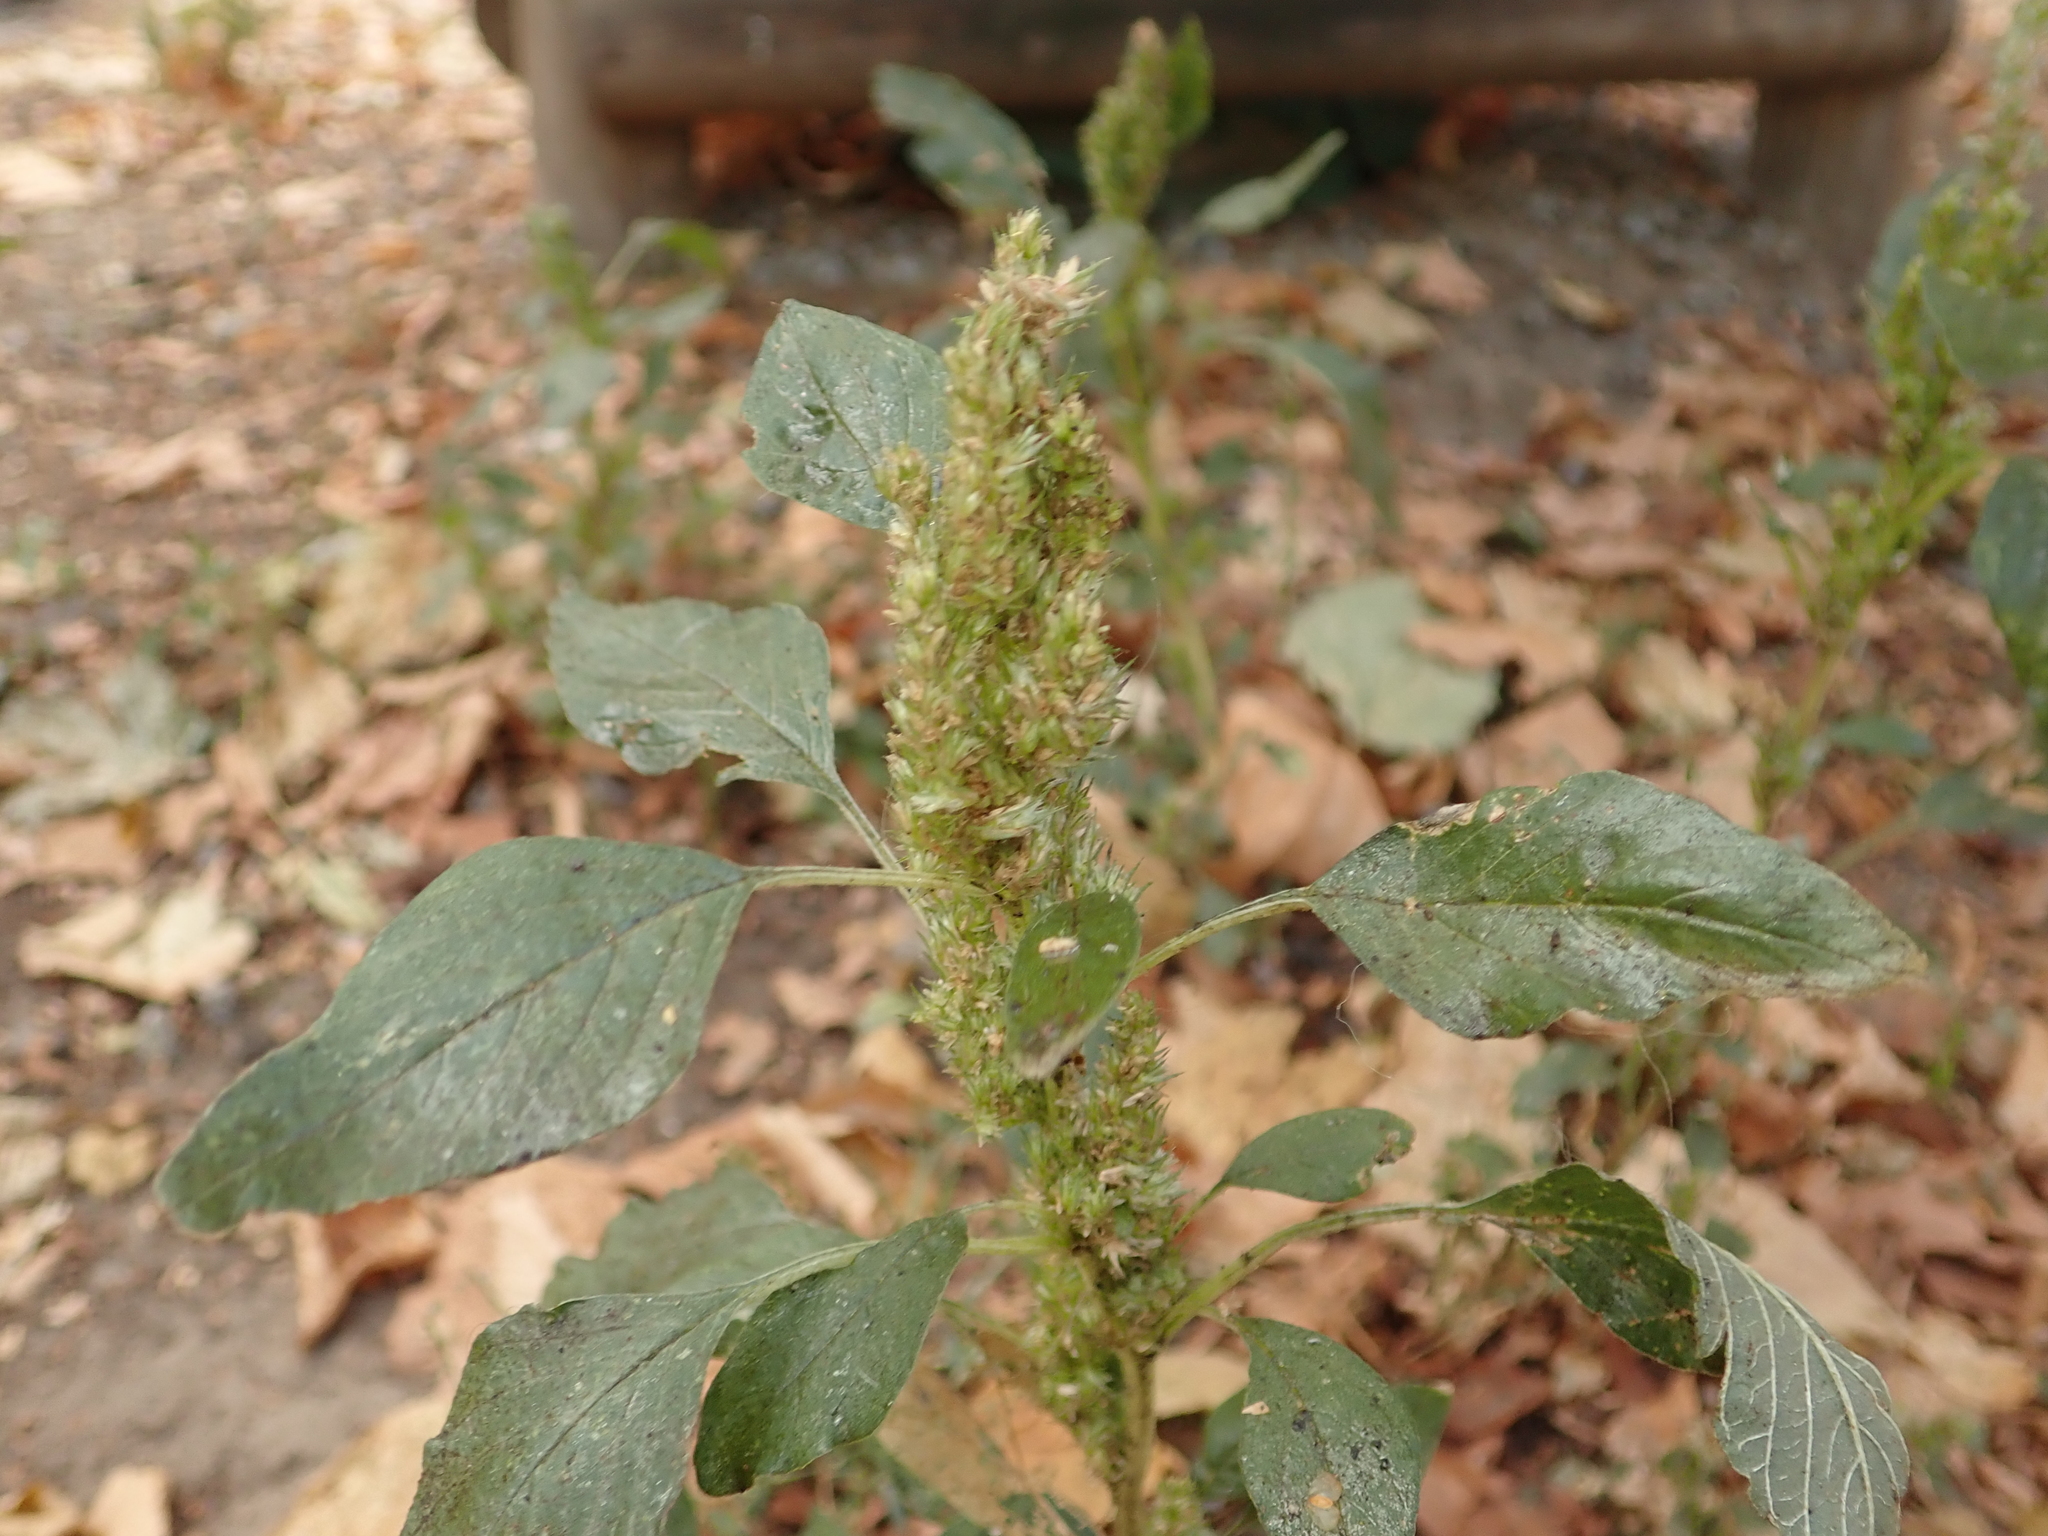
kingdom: Plantae
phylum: Tracheophyta
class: Magnoliopsida
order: Caryophyllales
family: Amaranthaceae
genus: Amaranthus
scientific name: Amaranthus retroflexus
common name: Redroot amaranth
